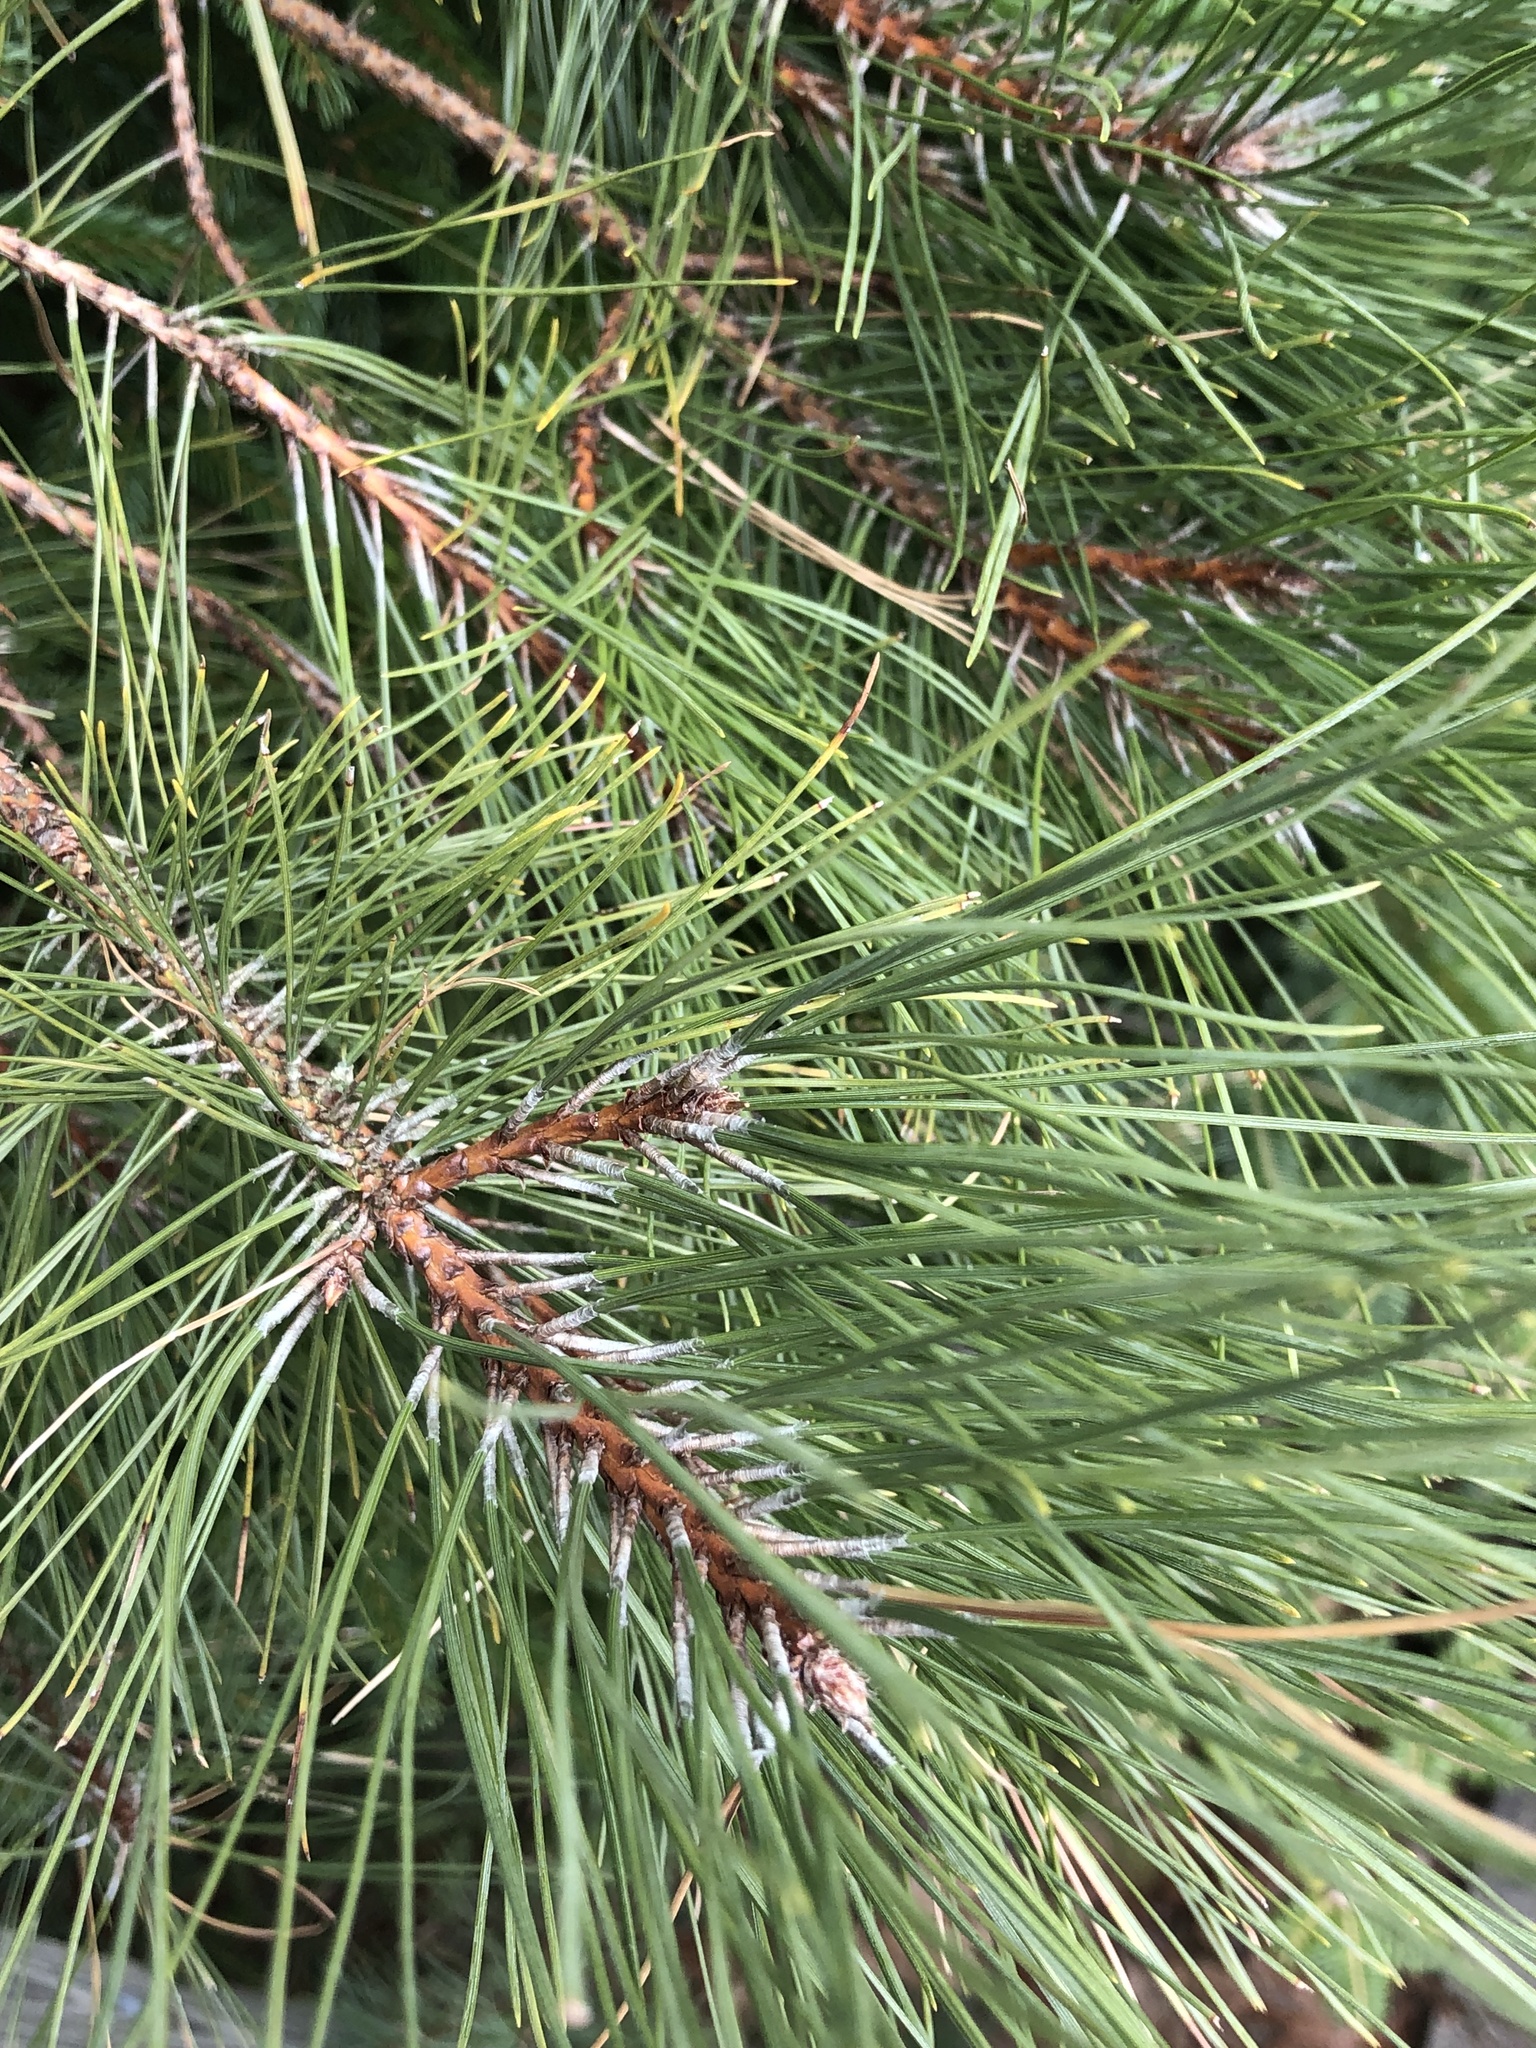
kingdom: Plantae
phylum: Tracheophyta
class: Pinopsida
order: Pinales
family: Pinaceae
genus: Pinus
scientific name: Pinus resinosa
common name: Norway pine
